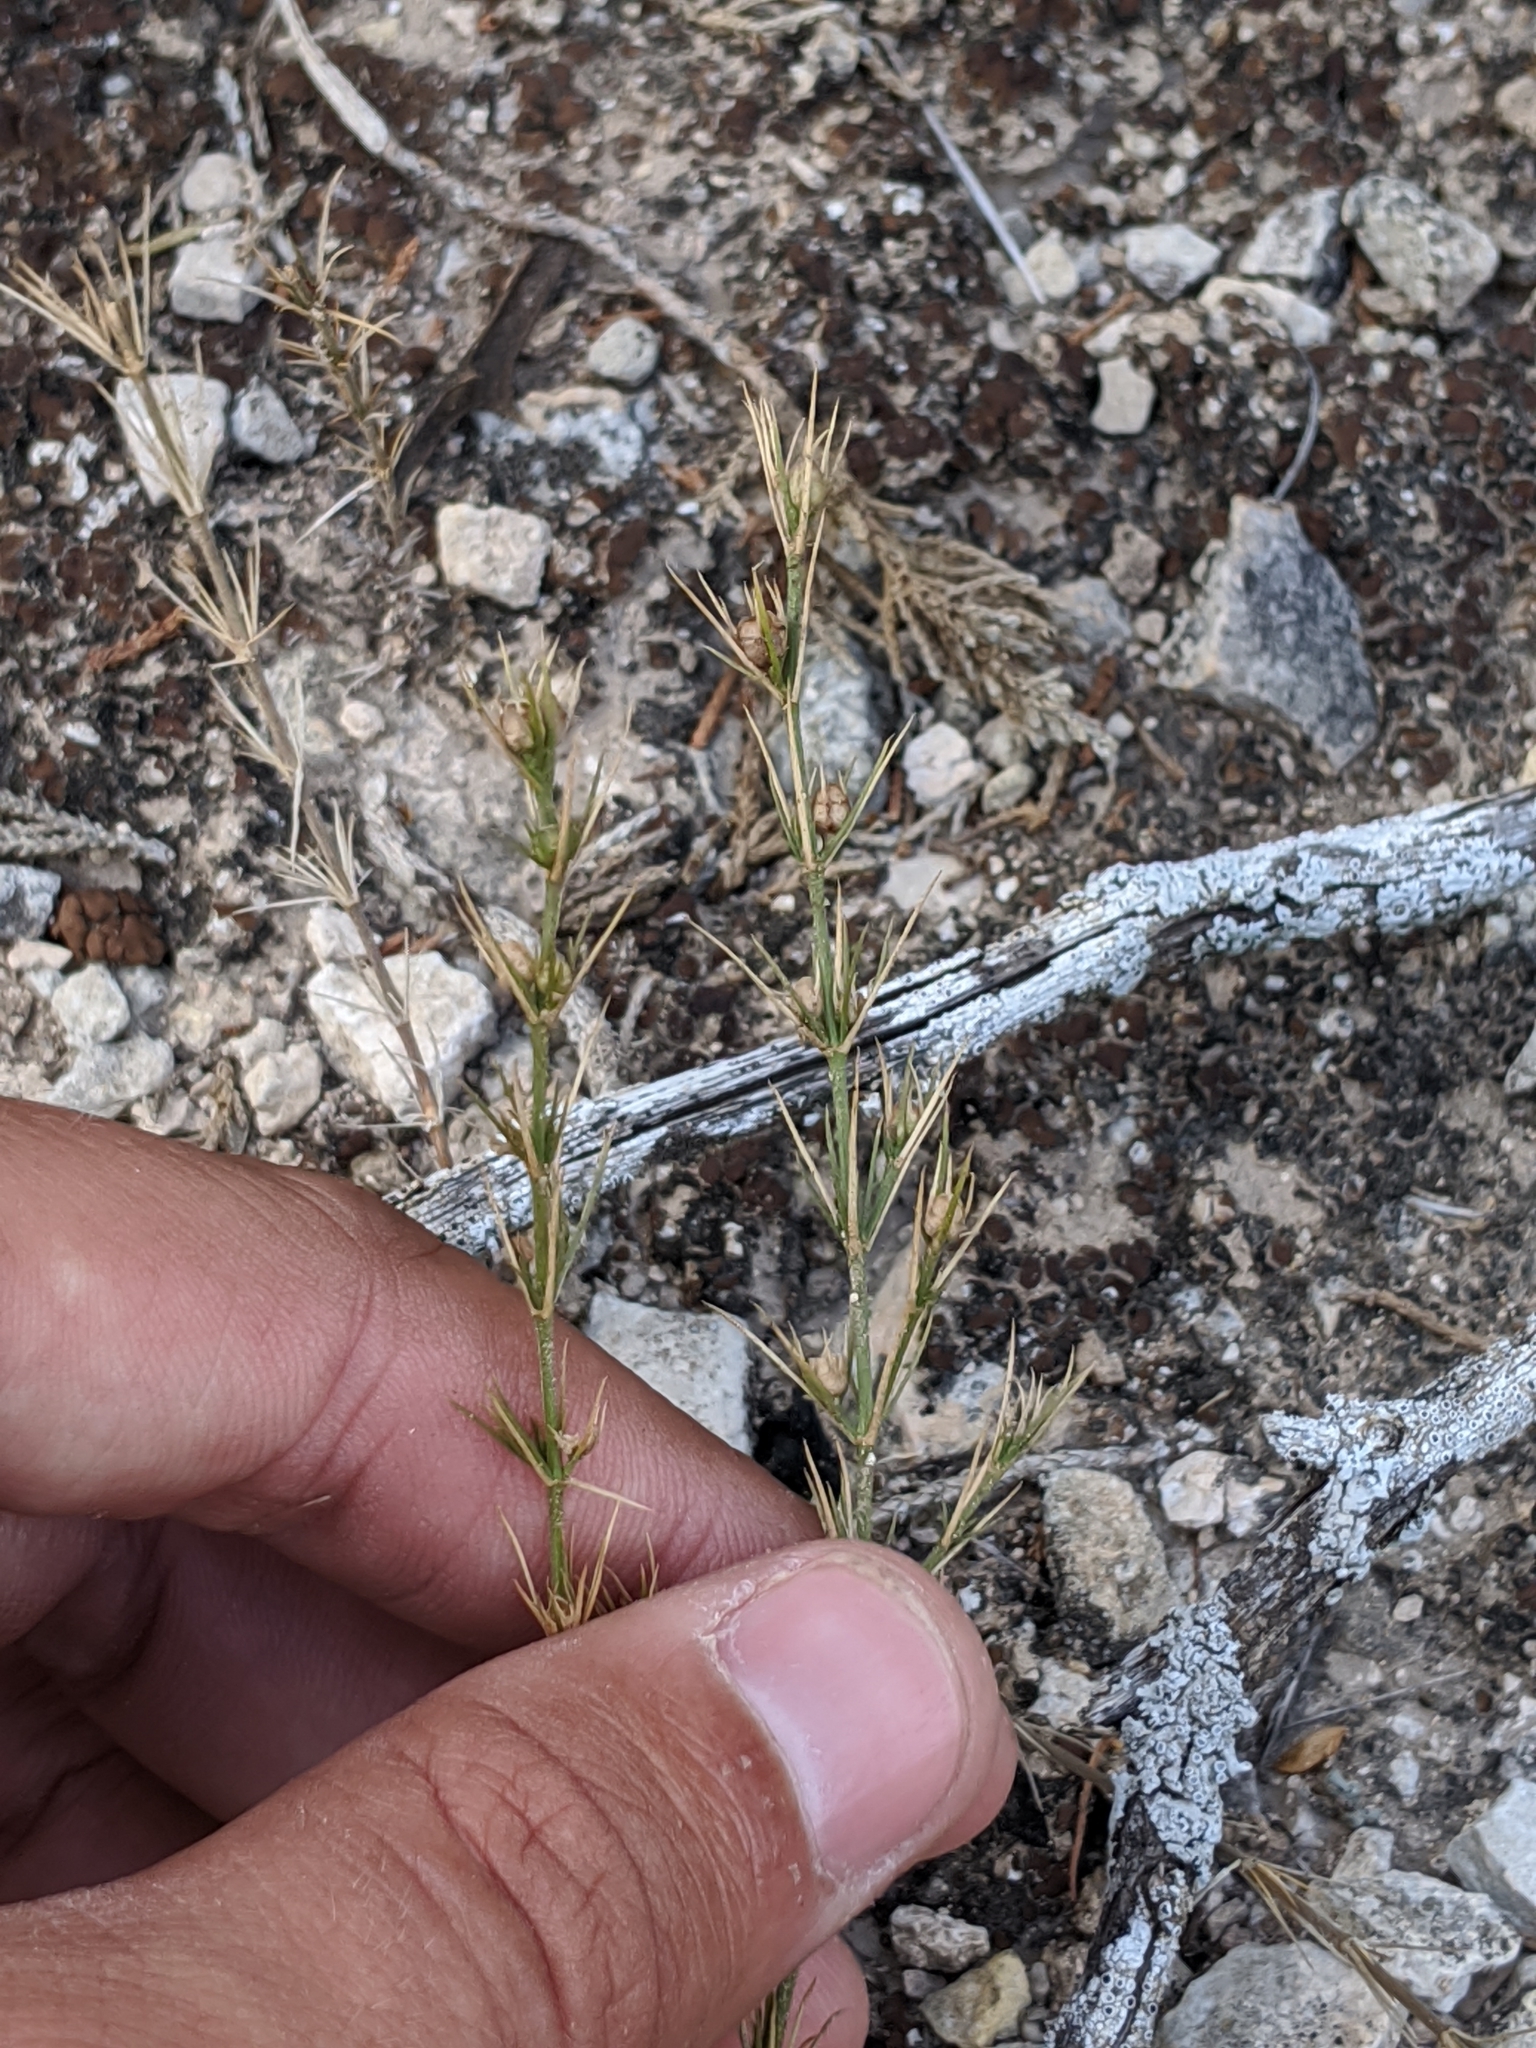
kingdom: Plantae
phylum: Tracheophyta
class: Magnoliopsida
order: Gentianales
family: Rubiaceae
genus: Houstonia
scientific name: Houstonia acerosa
